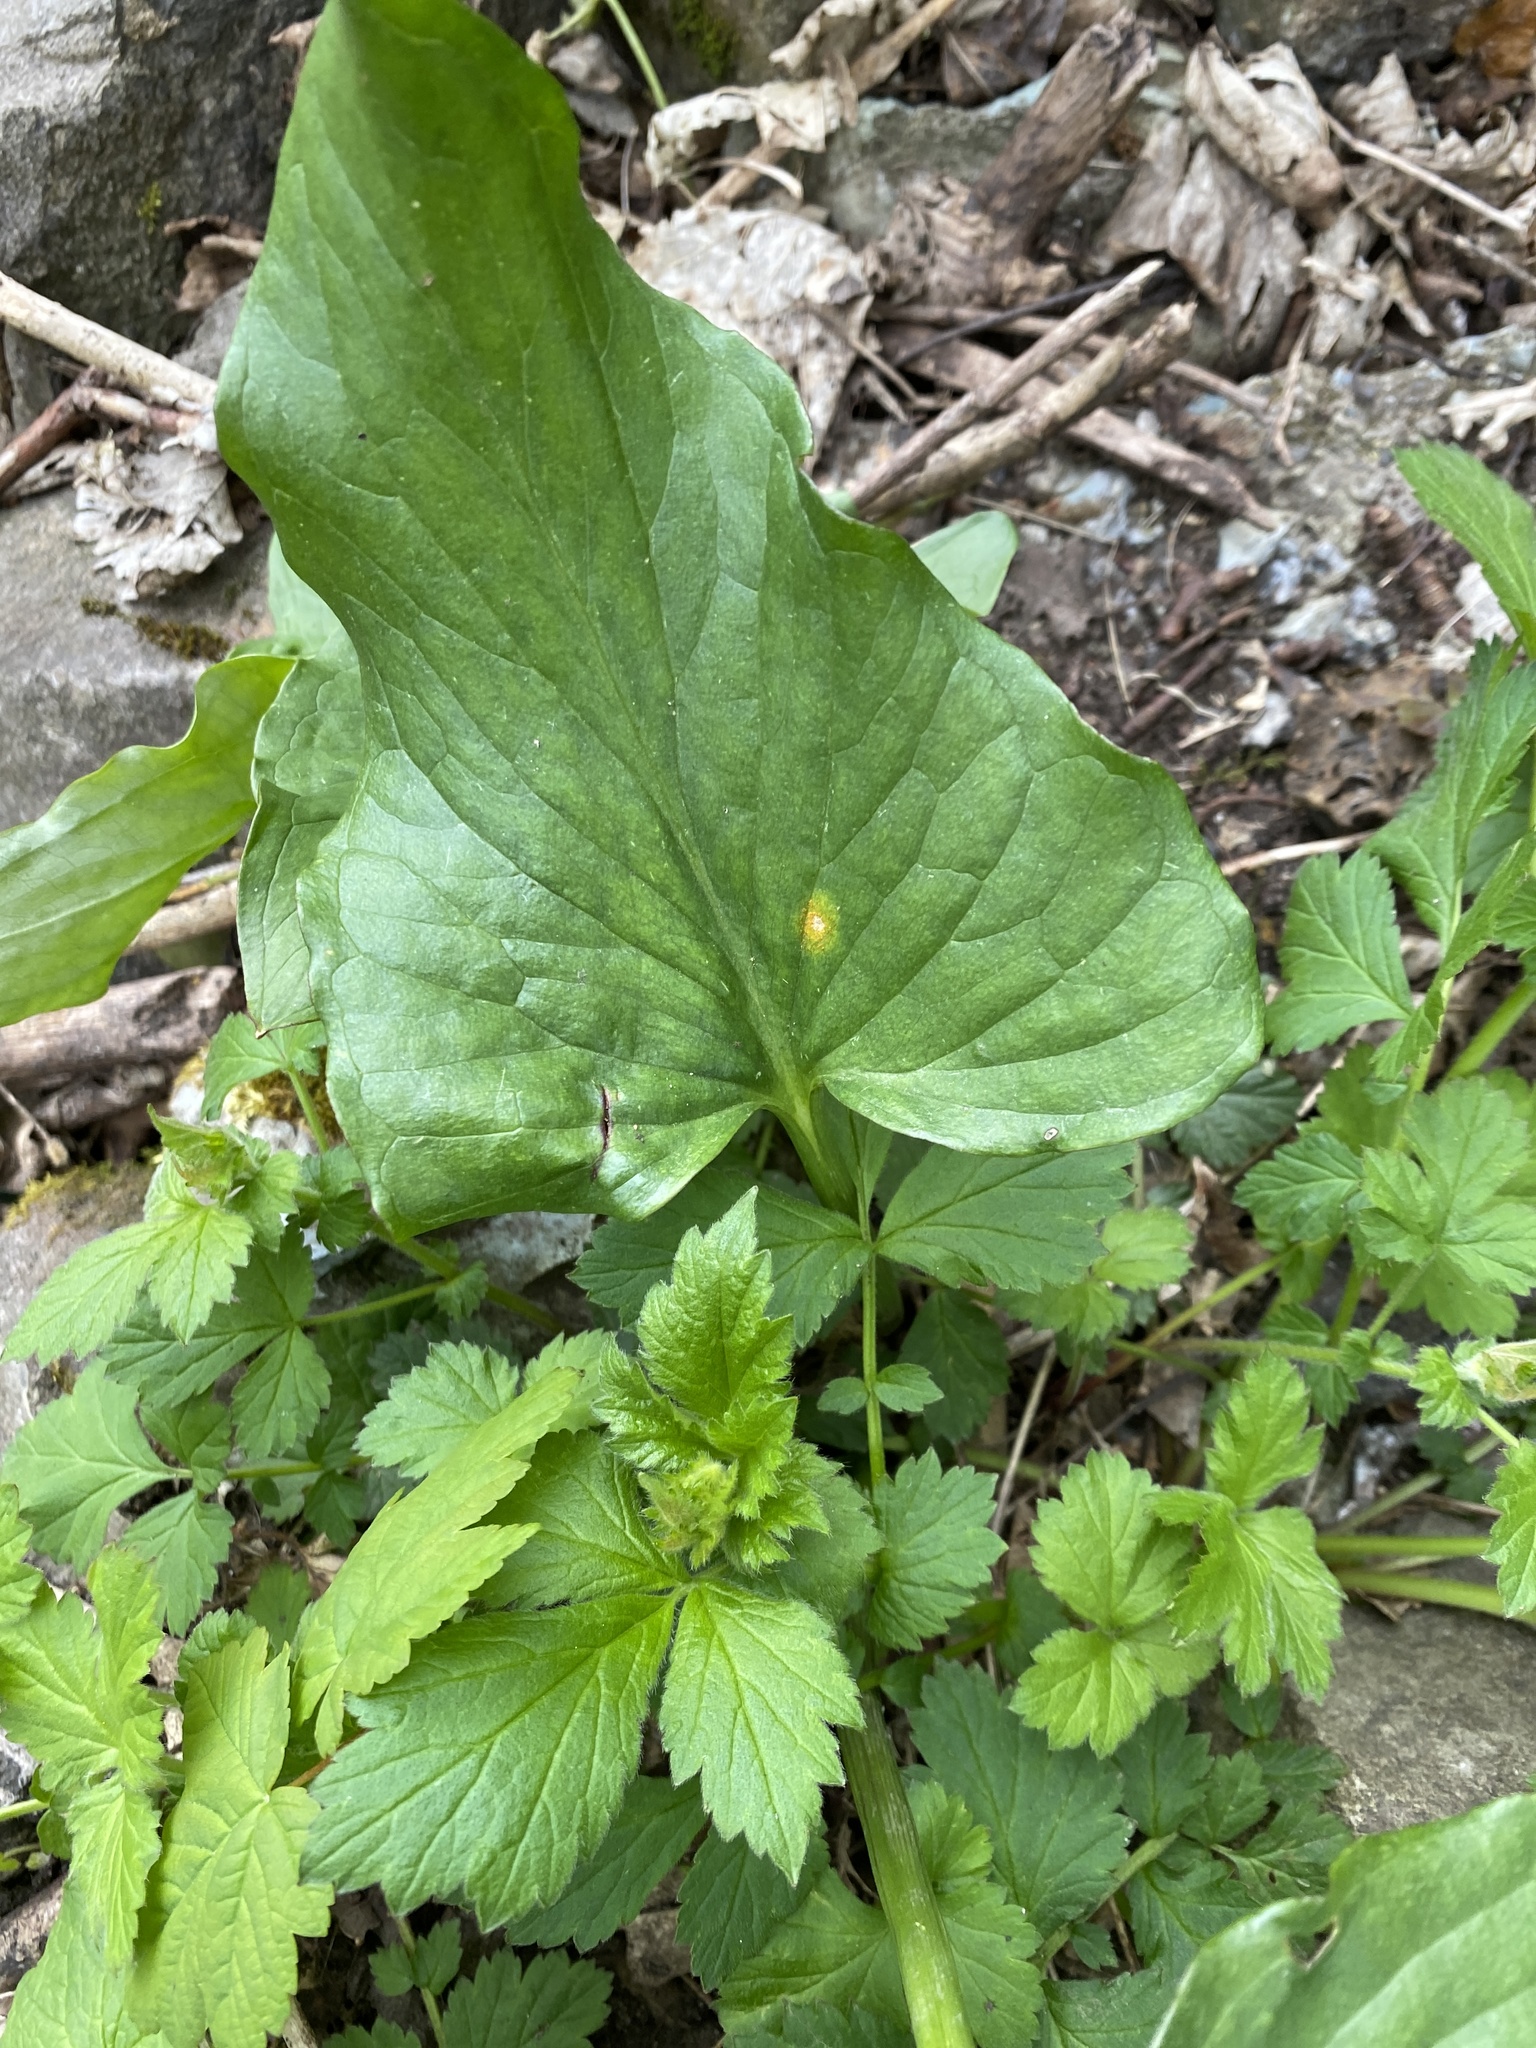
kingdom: Plantae
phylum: Tracheophyta
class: Liliopsida
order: Alismatales
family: Araceae
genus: Arum
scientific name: Arum maculatum
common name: Lords-and-ladies
